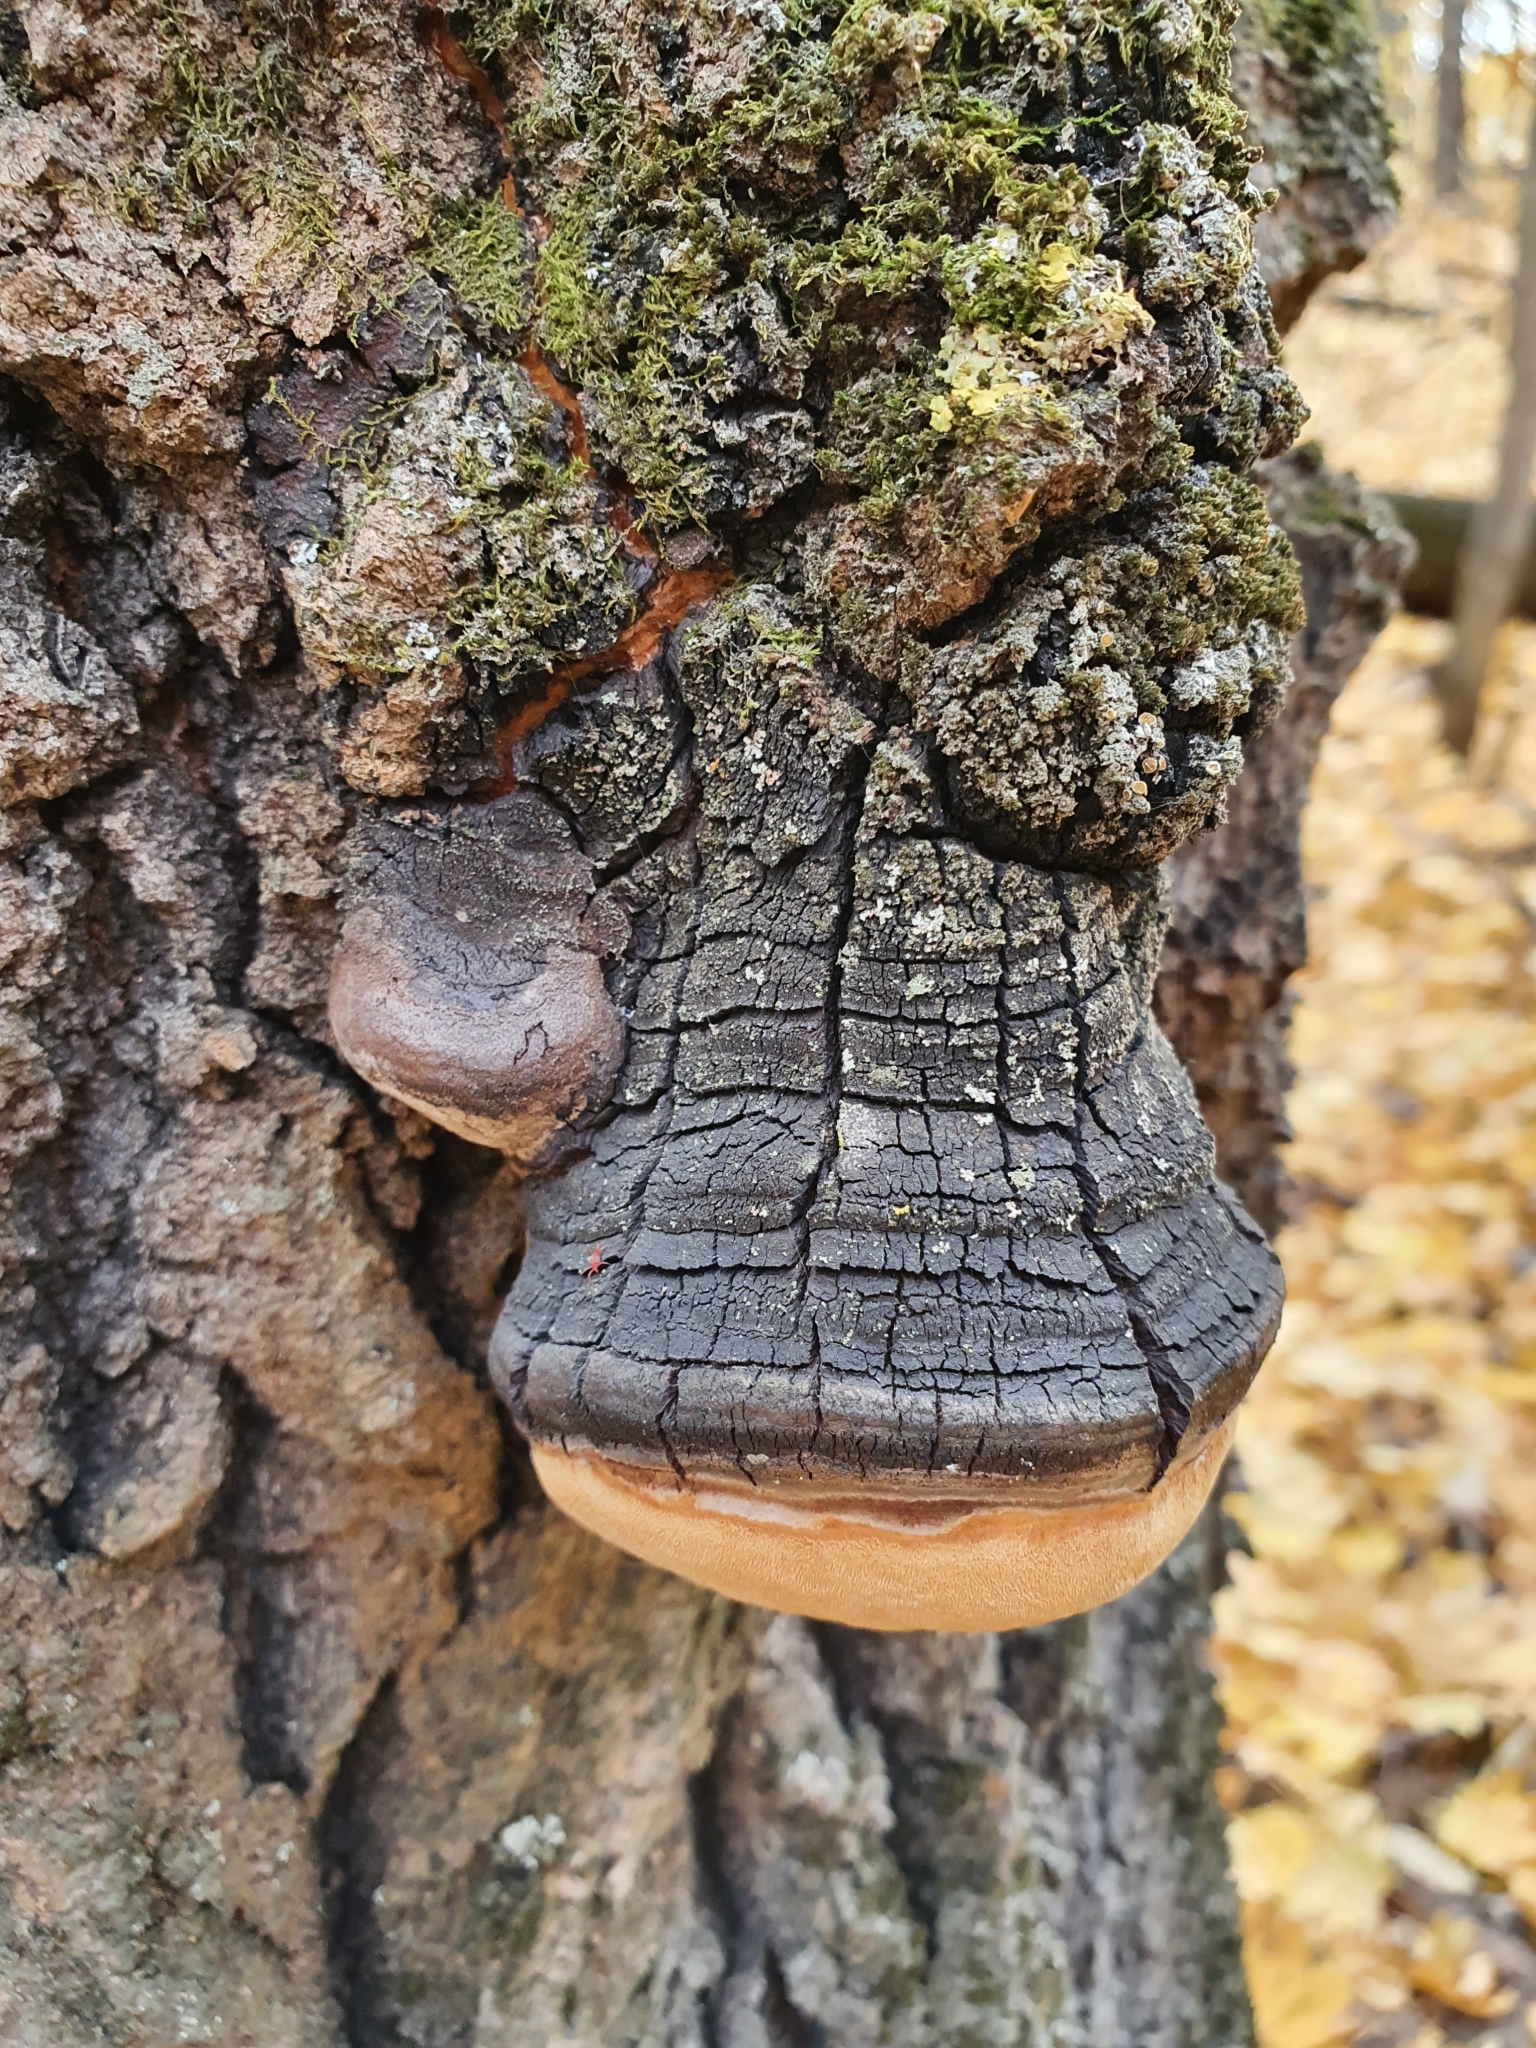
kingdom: Fungi
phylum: Basidiomycota
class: Agaricomycetes
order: Hymenochaetales
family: Hymenochaetaceae
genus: Phellinus
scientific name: Phellinus tremulae
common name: Aspen bracket
